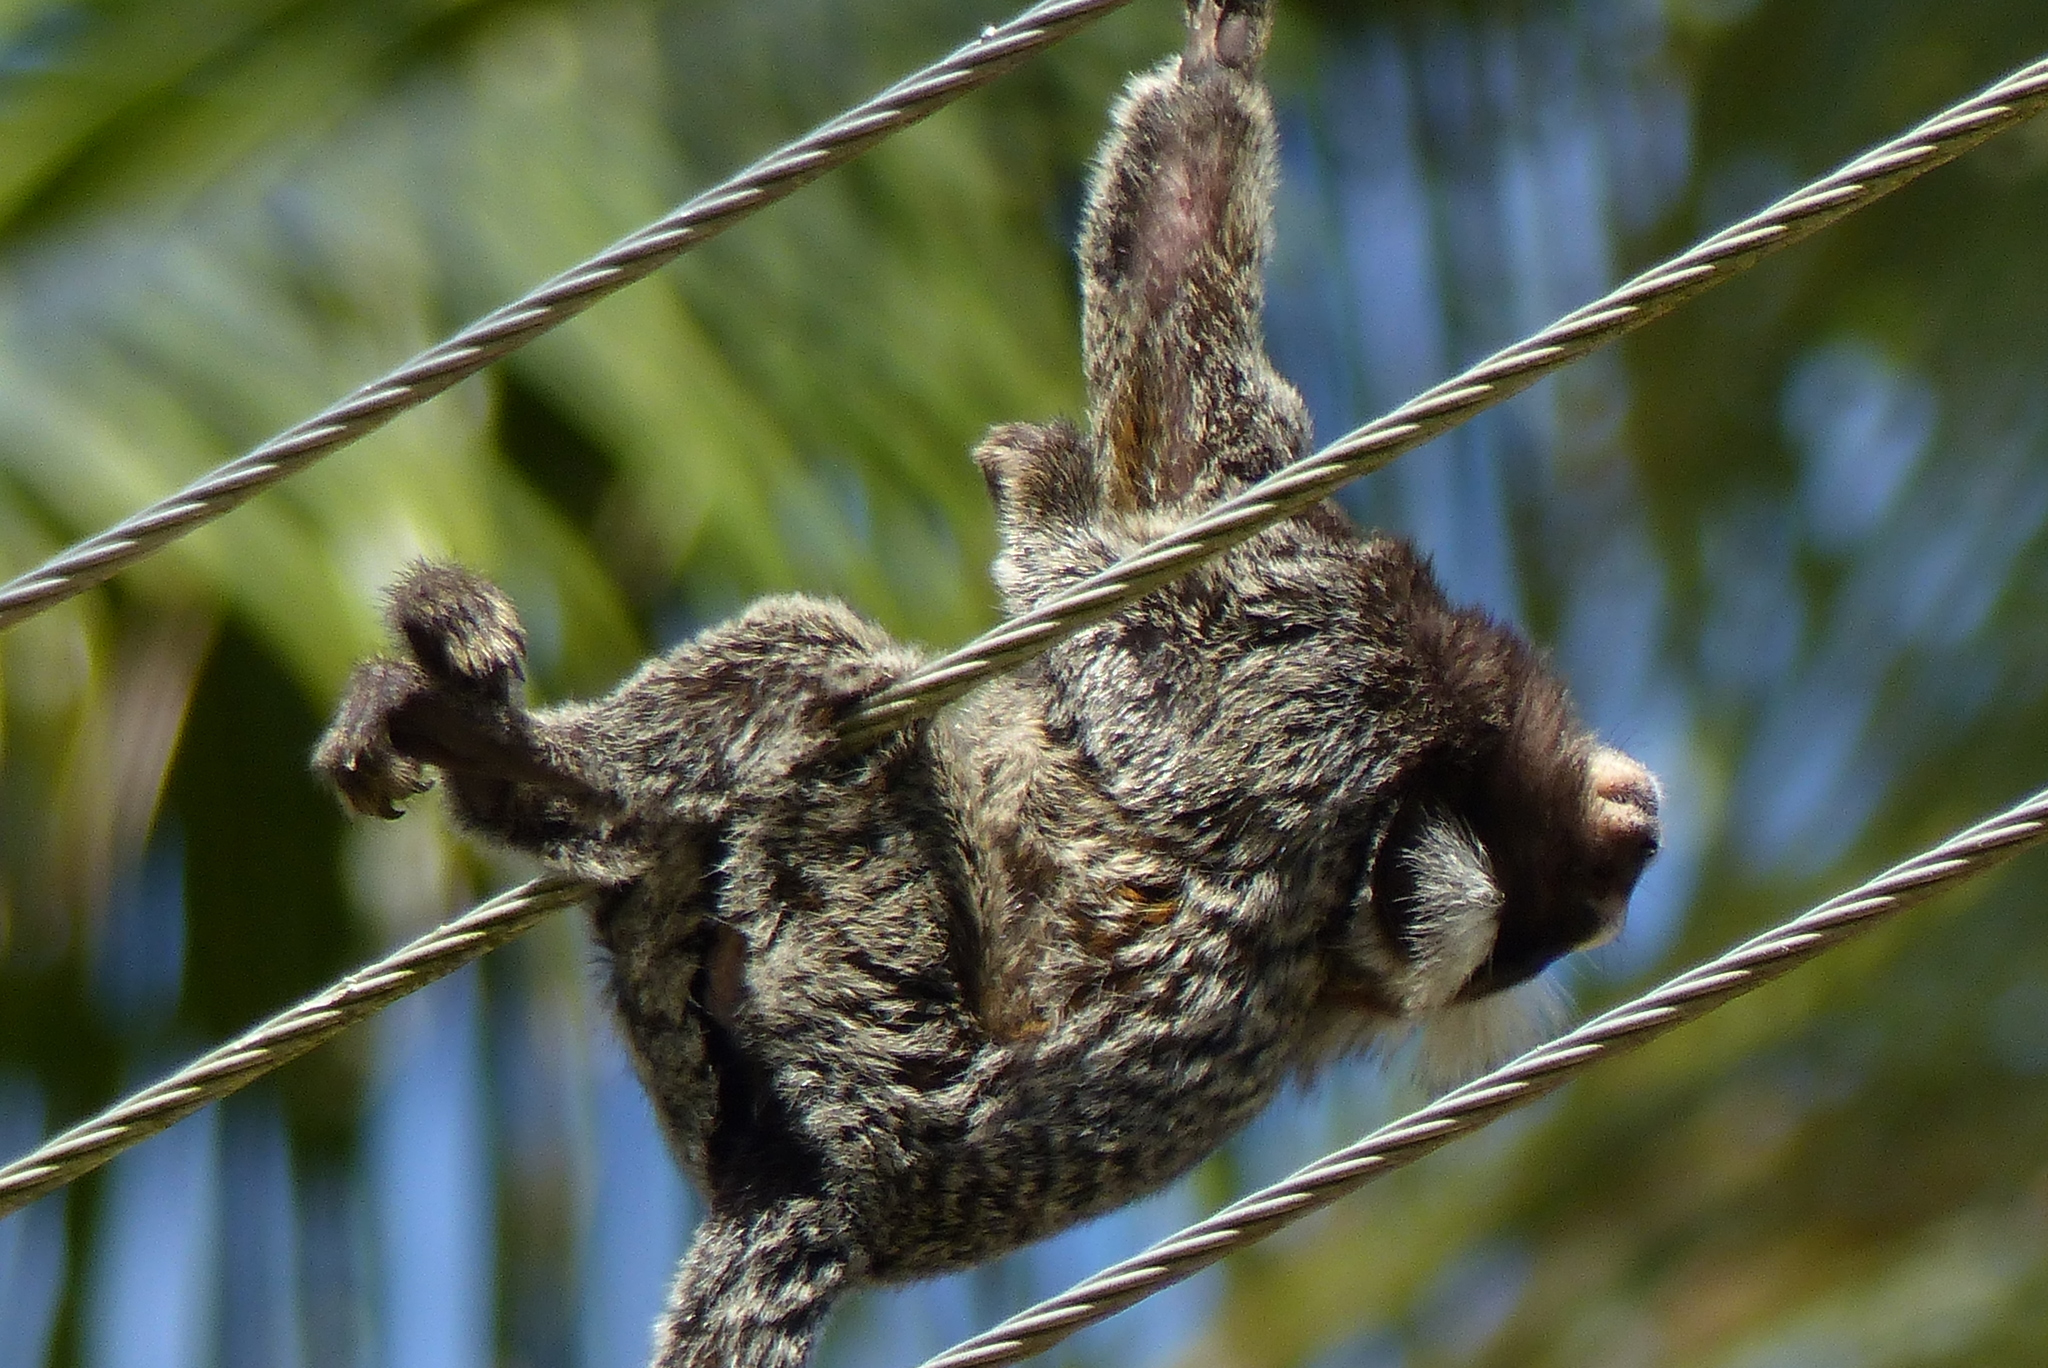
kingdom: Animalia
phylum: Chordata
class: Mammalia
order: Primates
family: Callitrichidae
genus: Callithrix
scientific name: Callithrix jacchus
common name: Common marmoset
